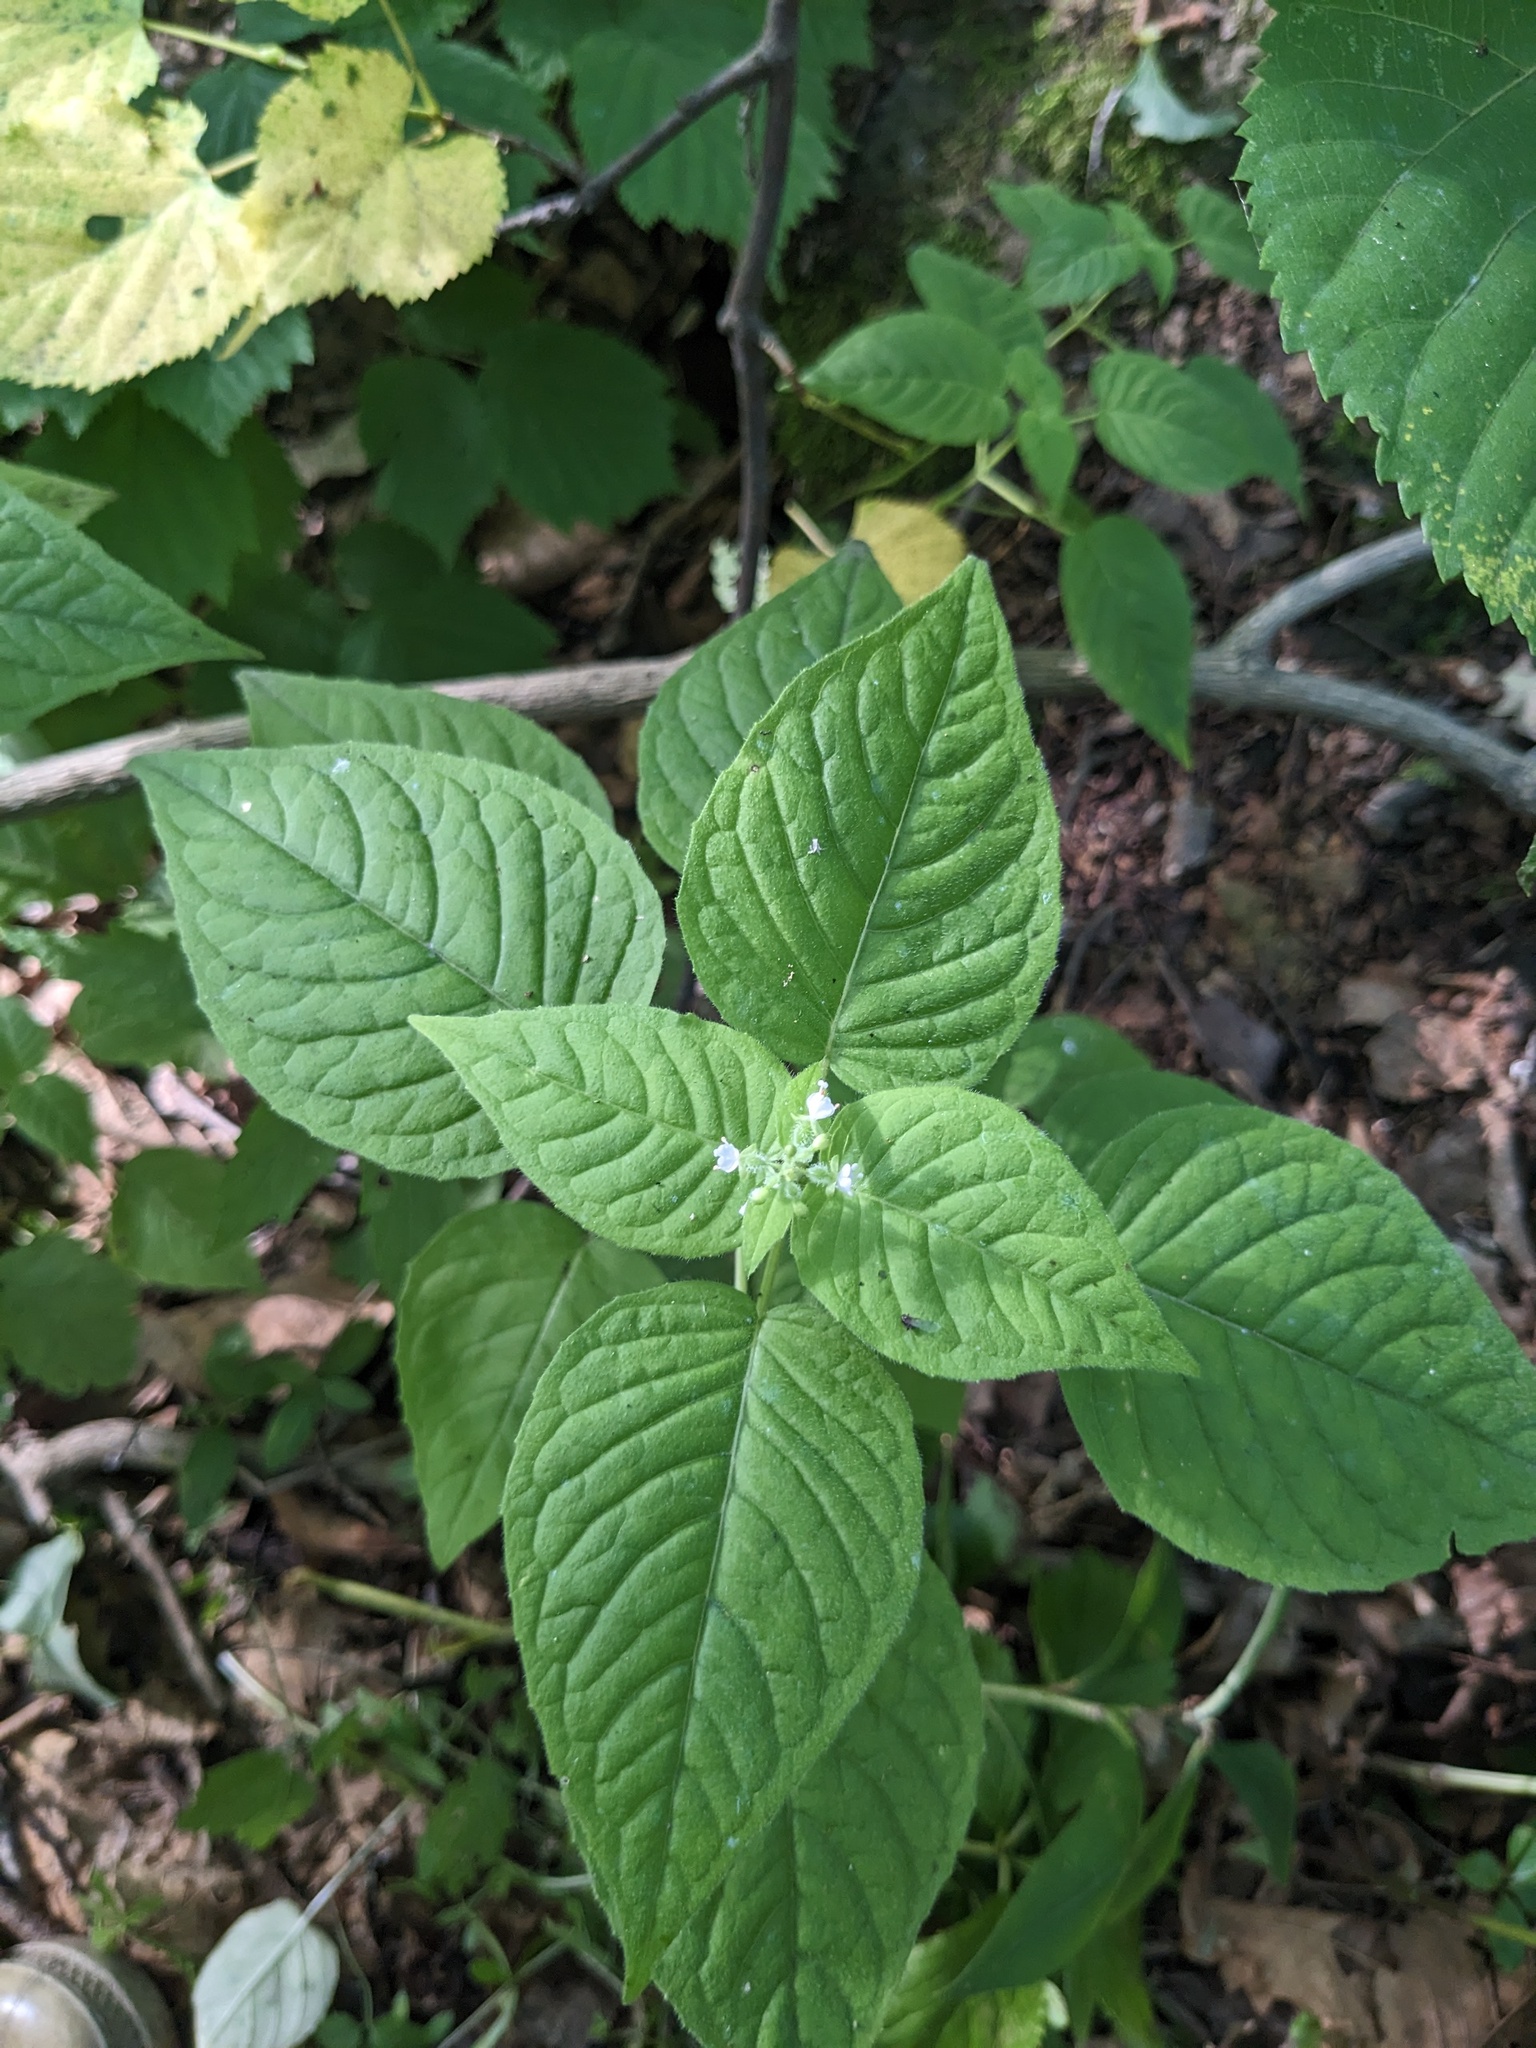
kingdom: Plantae
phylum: Tracheophyta
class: Magnoliopsida
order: Myrtales
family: Onagraceae
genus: Circaea
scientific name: Circaea cordata
